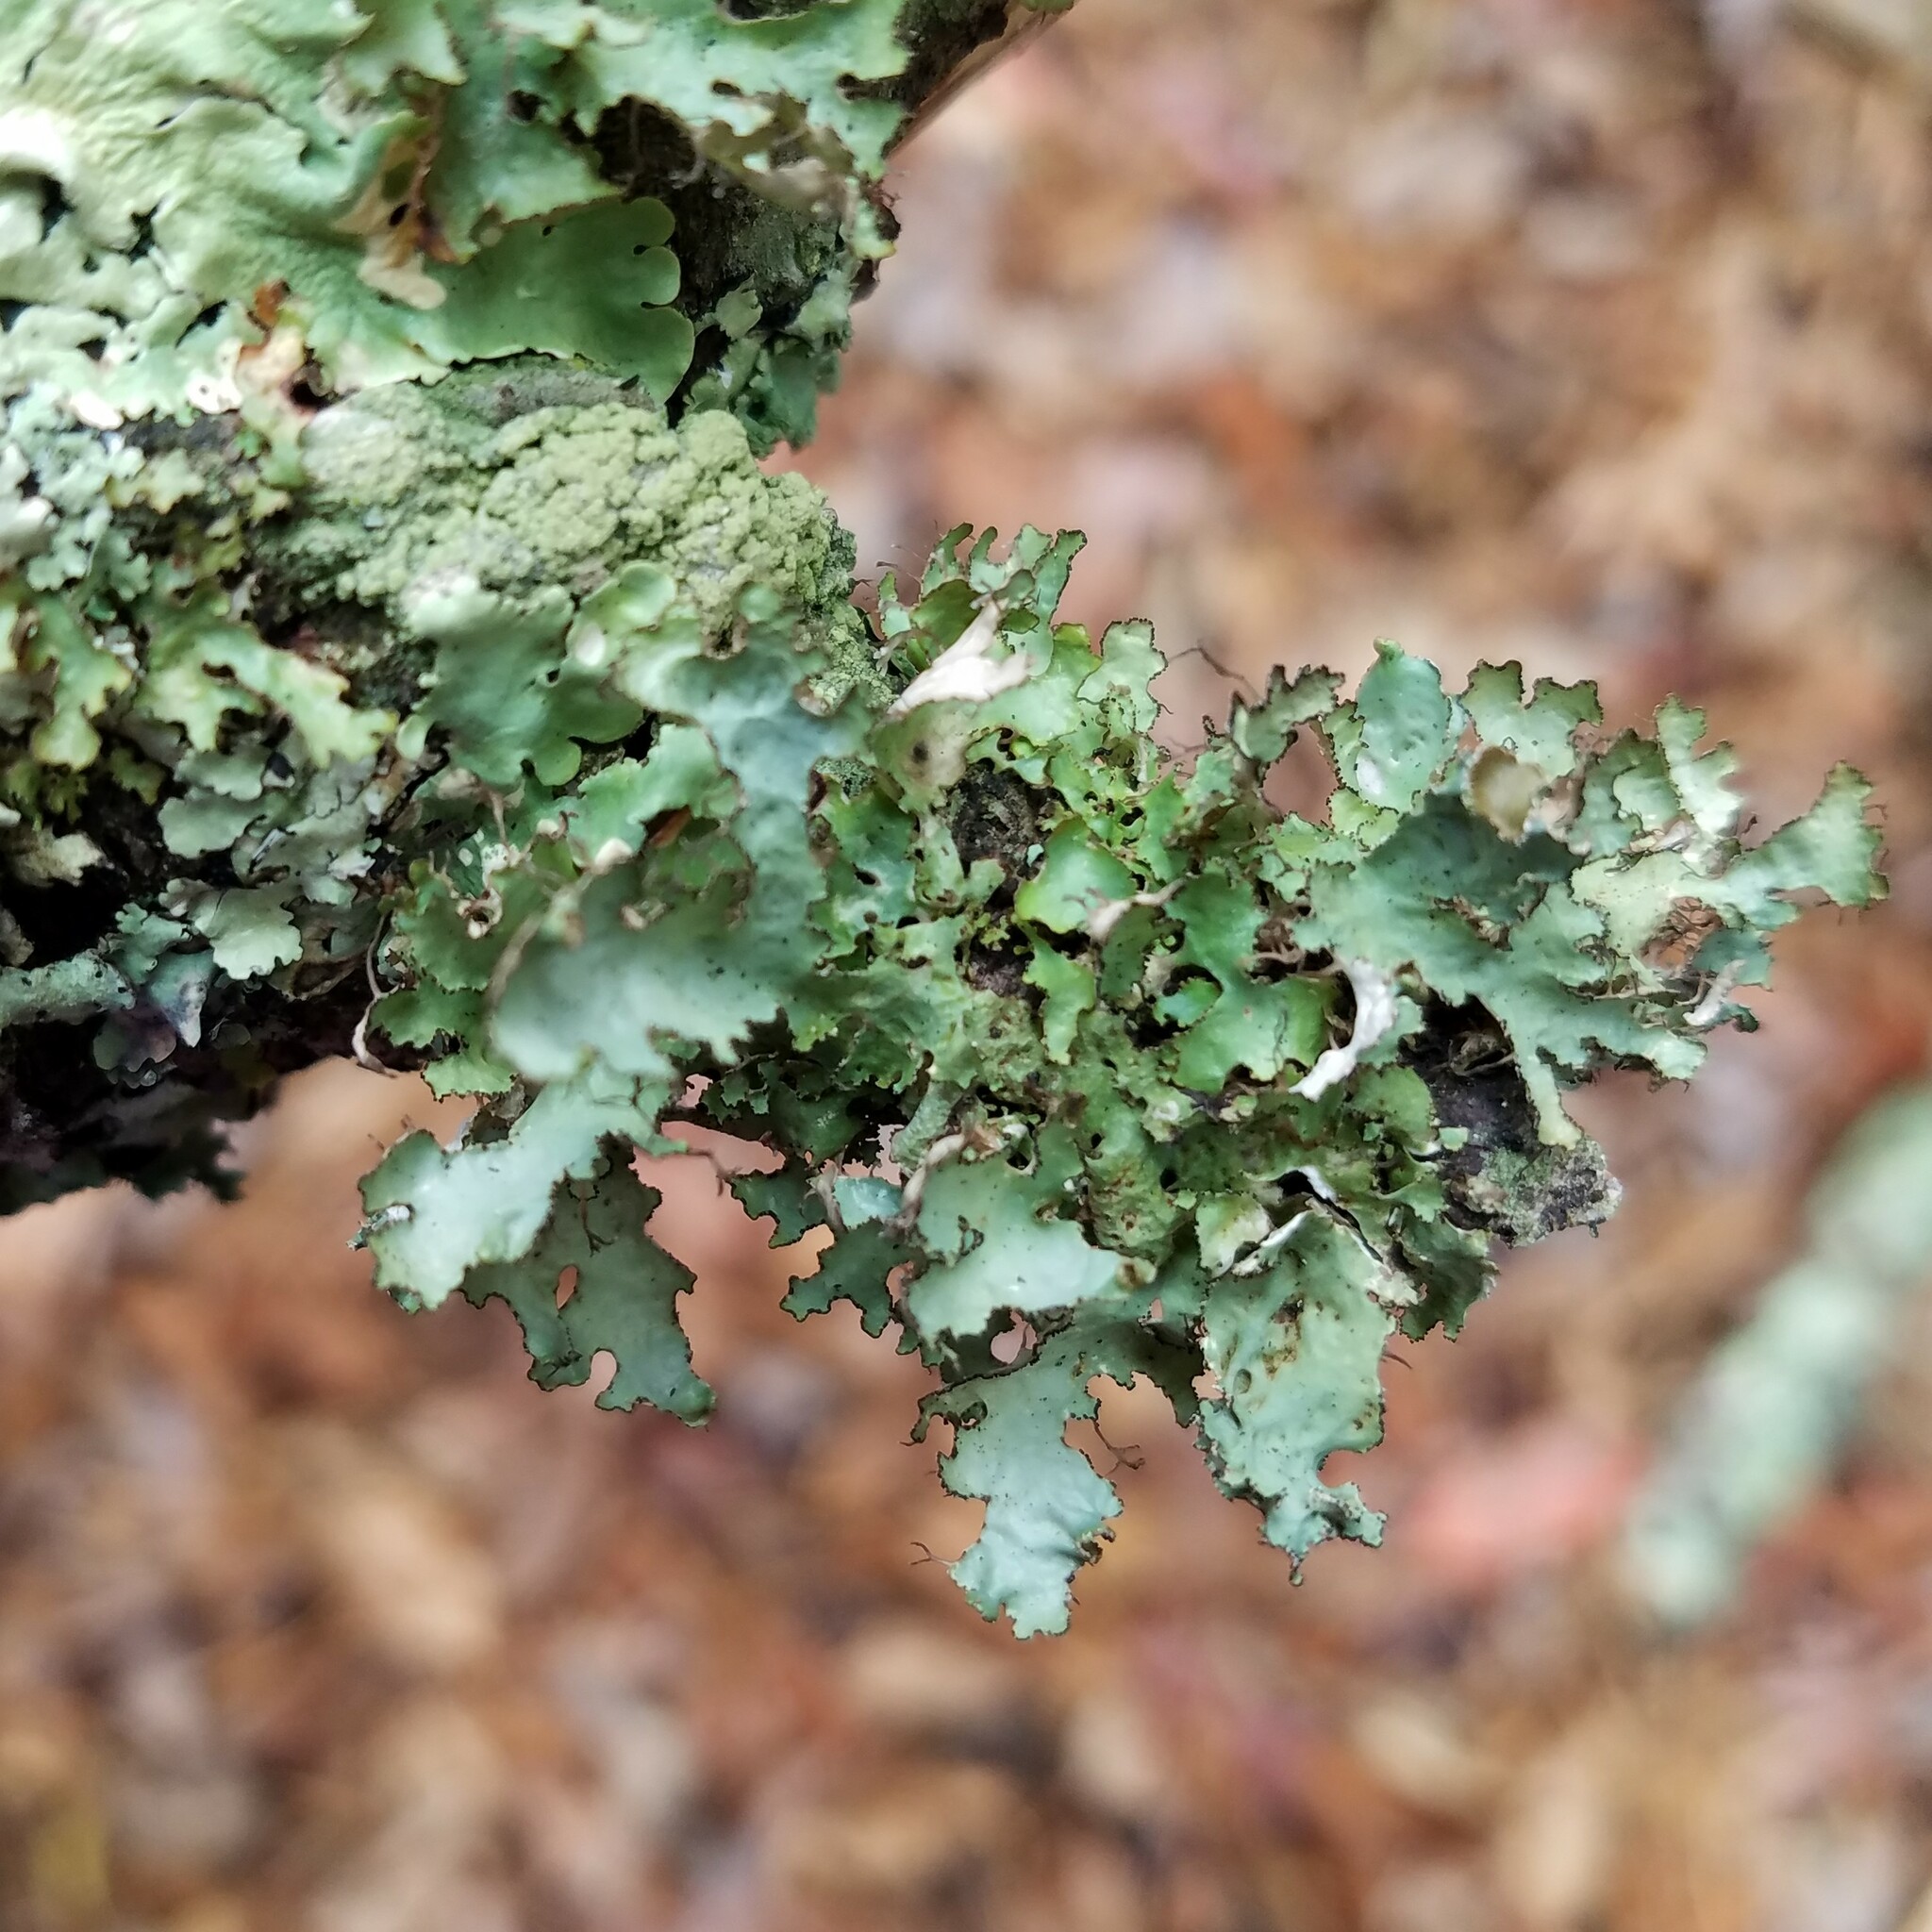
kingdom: Fungi
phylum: Ascomycota
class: Lecanoromycetes
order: Lecanorales
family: Parmeliaceae
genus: Tuckermannopsis
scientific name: Tuckermannopsis ciliaris
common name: Ciliate wrinkle-lichen
